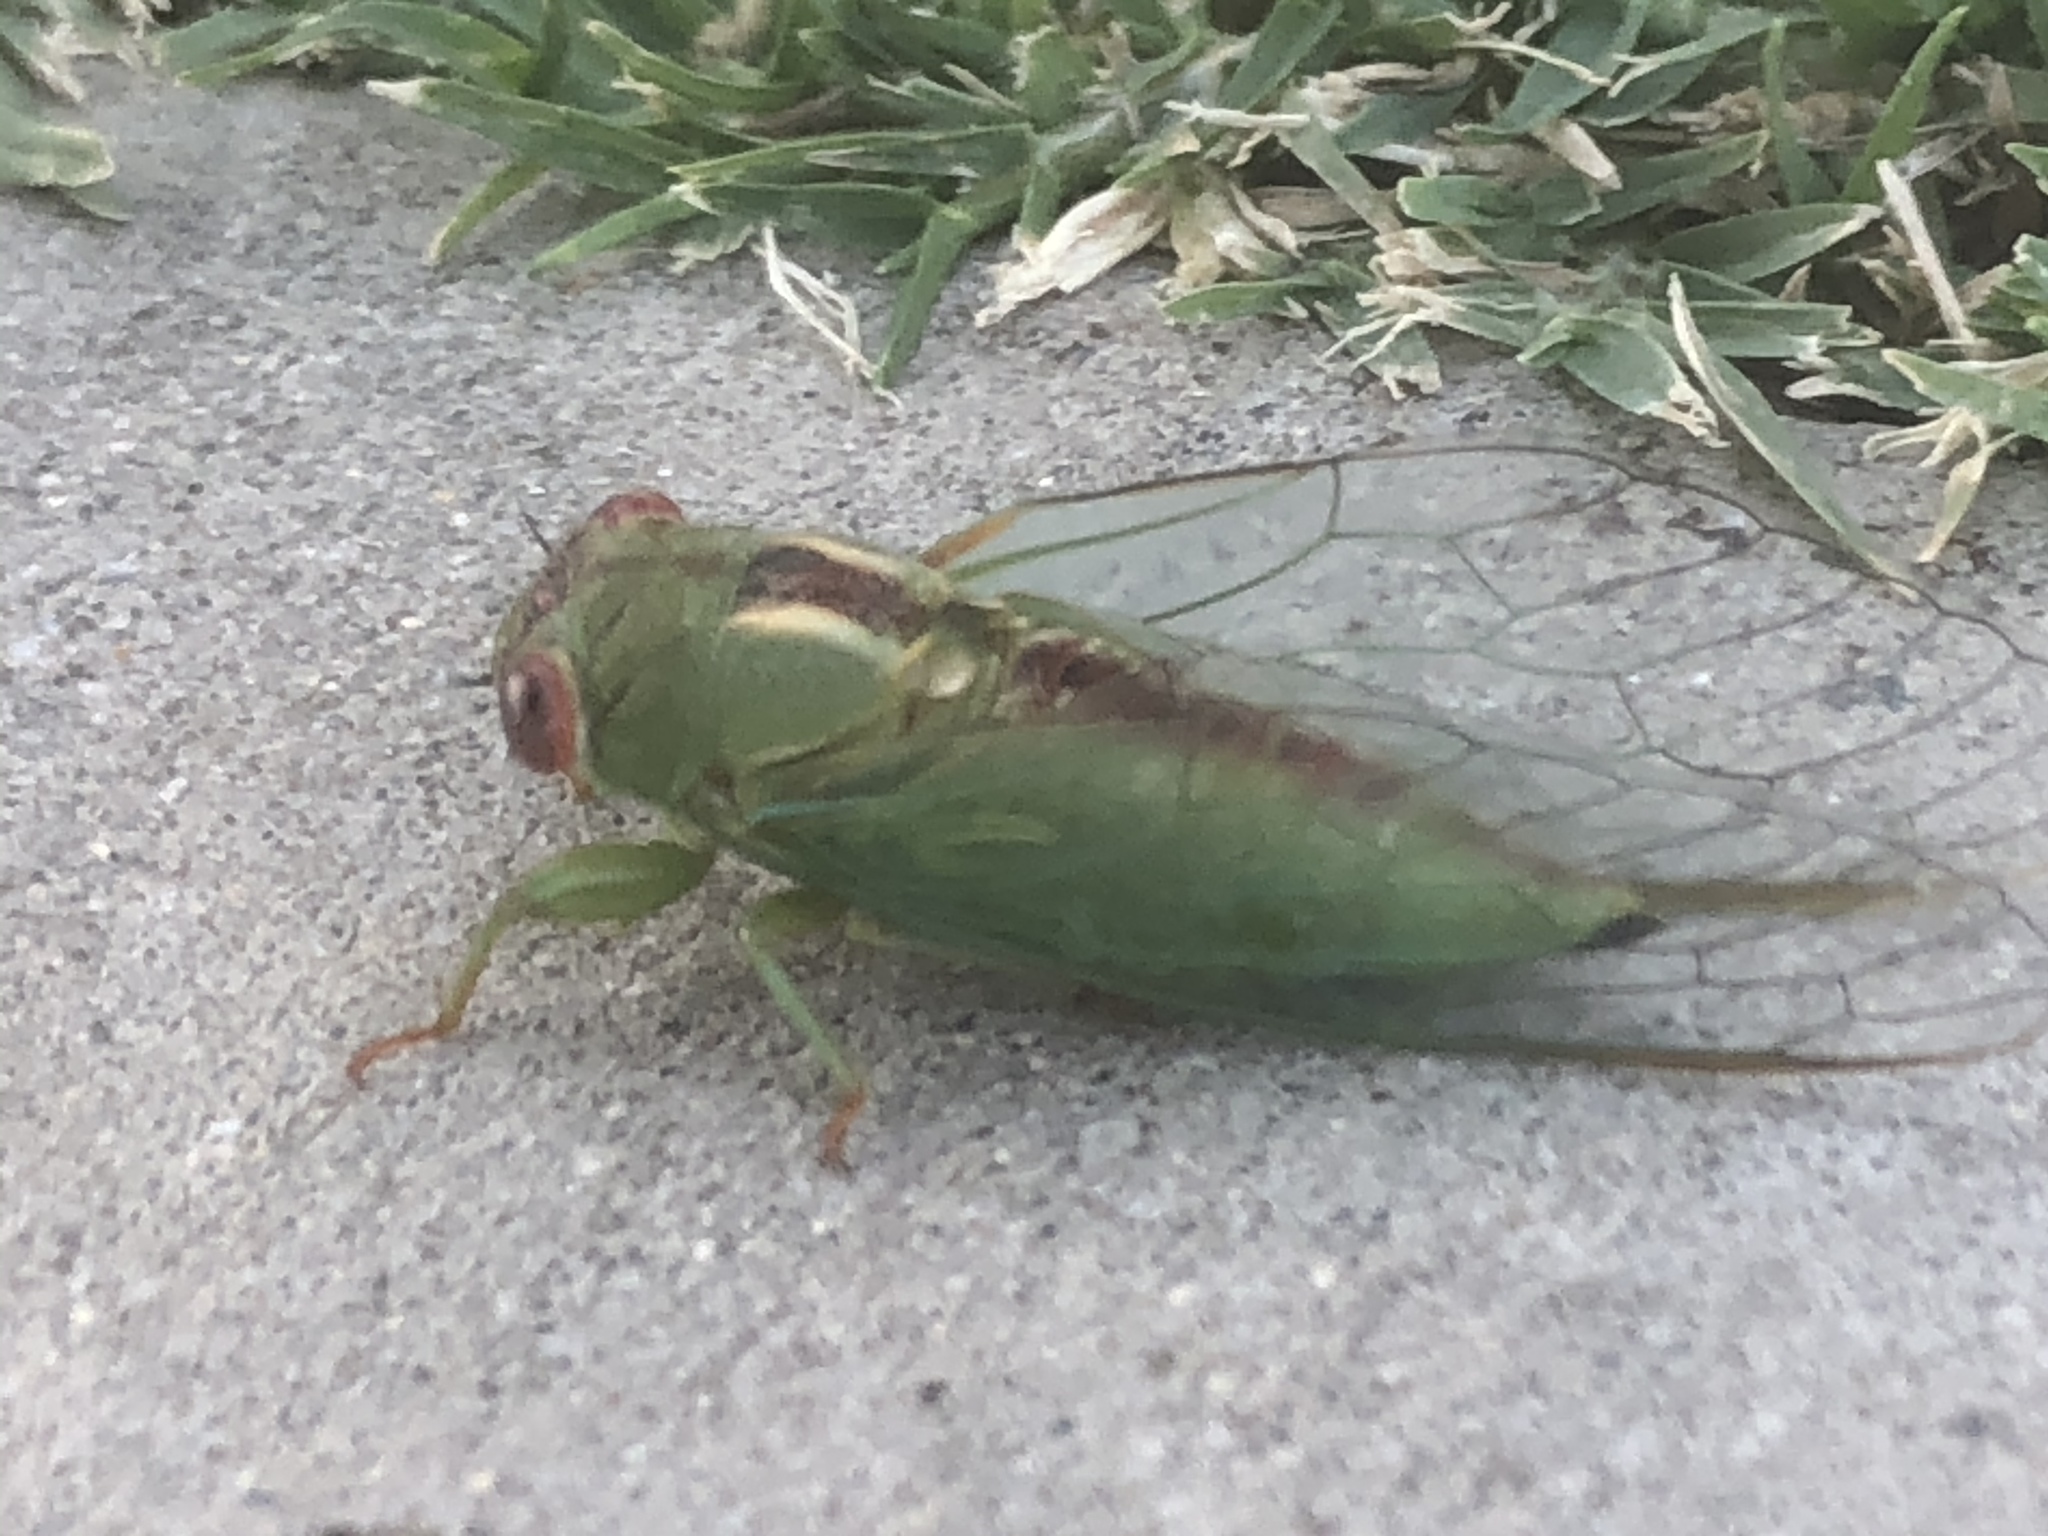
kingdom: Animalia
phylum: Arthropoda
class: Insecta
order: Hemiptera
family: Cicadidae
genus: Ewartia
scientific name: Ewartia roberti
